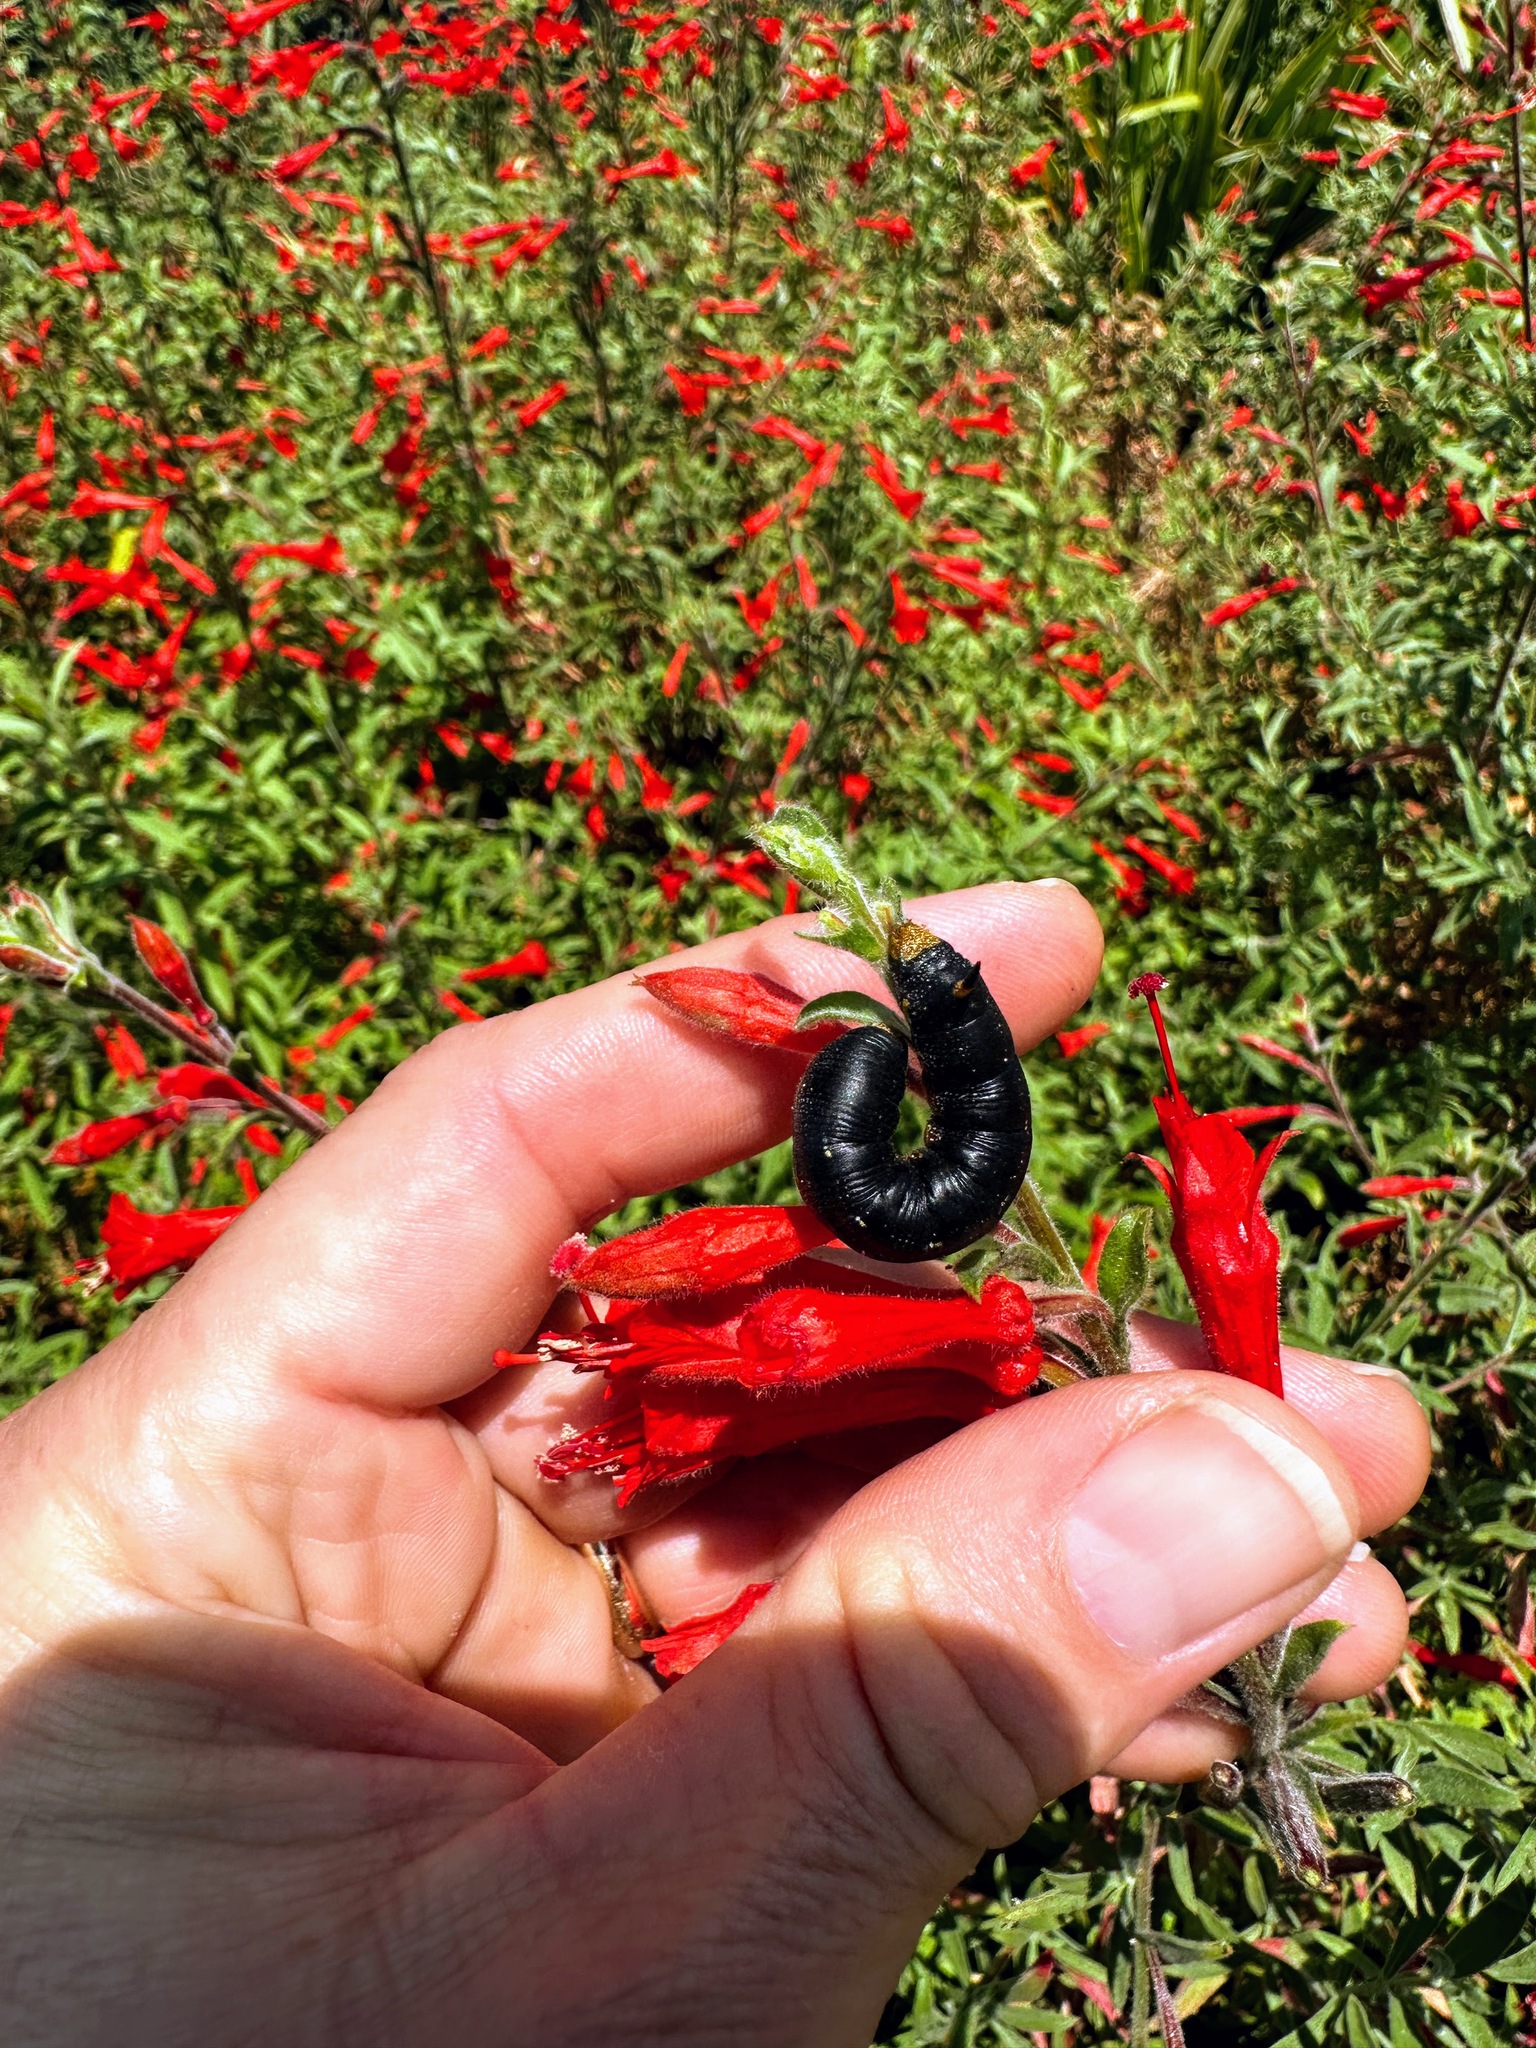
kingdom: Animalia
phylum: Arthropoda
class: Insecta
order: Lepidoptera
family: Sphingidae
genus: Hyles
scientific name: Hyles lineata
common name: White-lined sphinx
